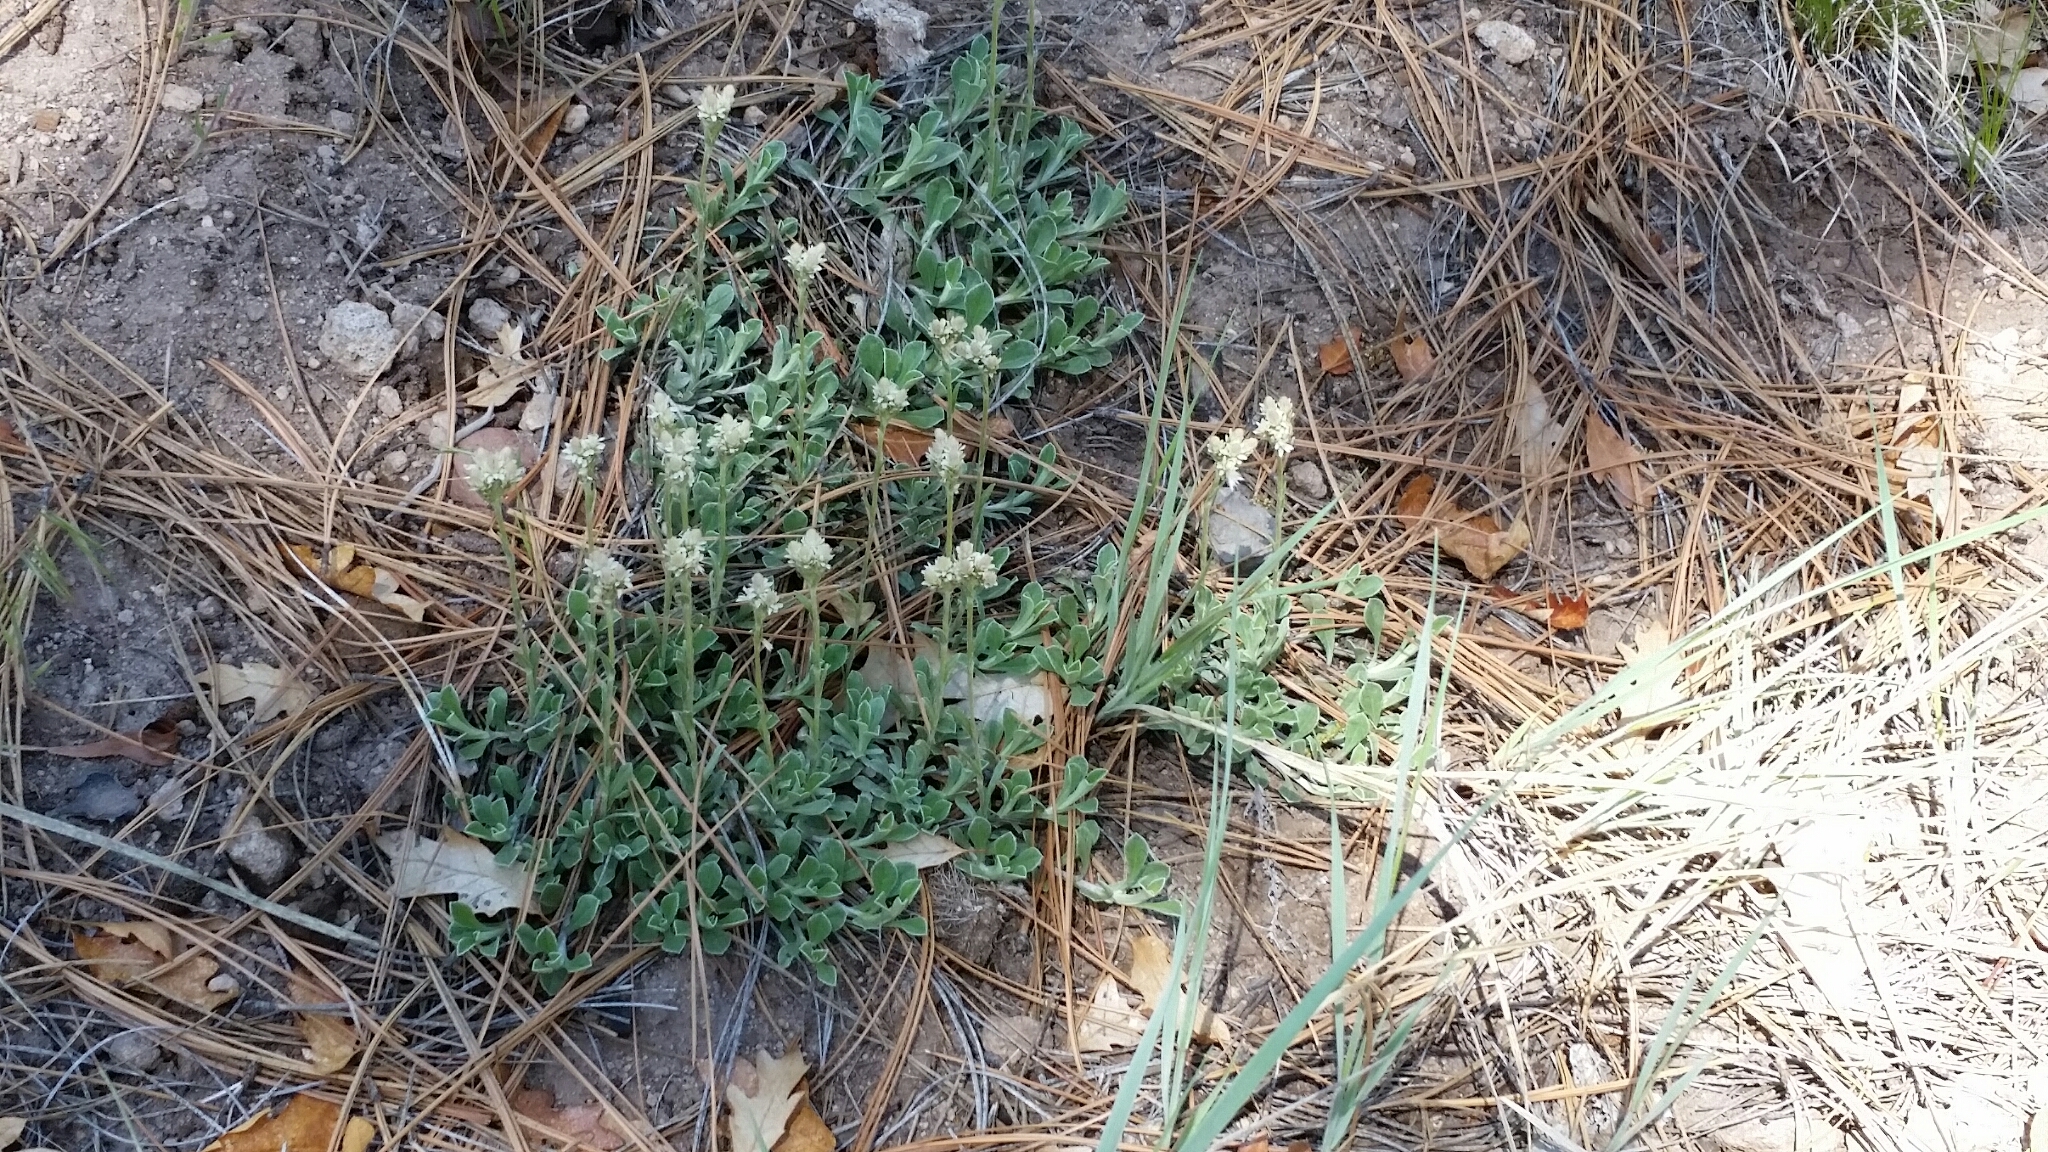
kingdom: Plantae
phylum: Tracheophyta
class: Magnoliopsida
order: Asterales
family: Asteraceae
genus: Antennaria
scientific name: Antennaria marginata
